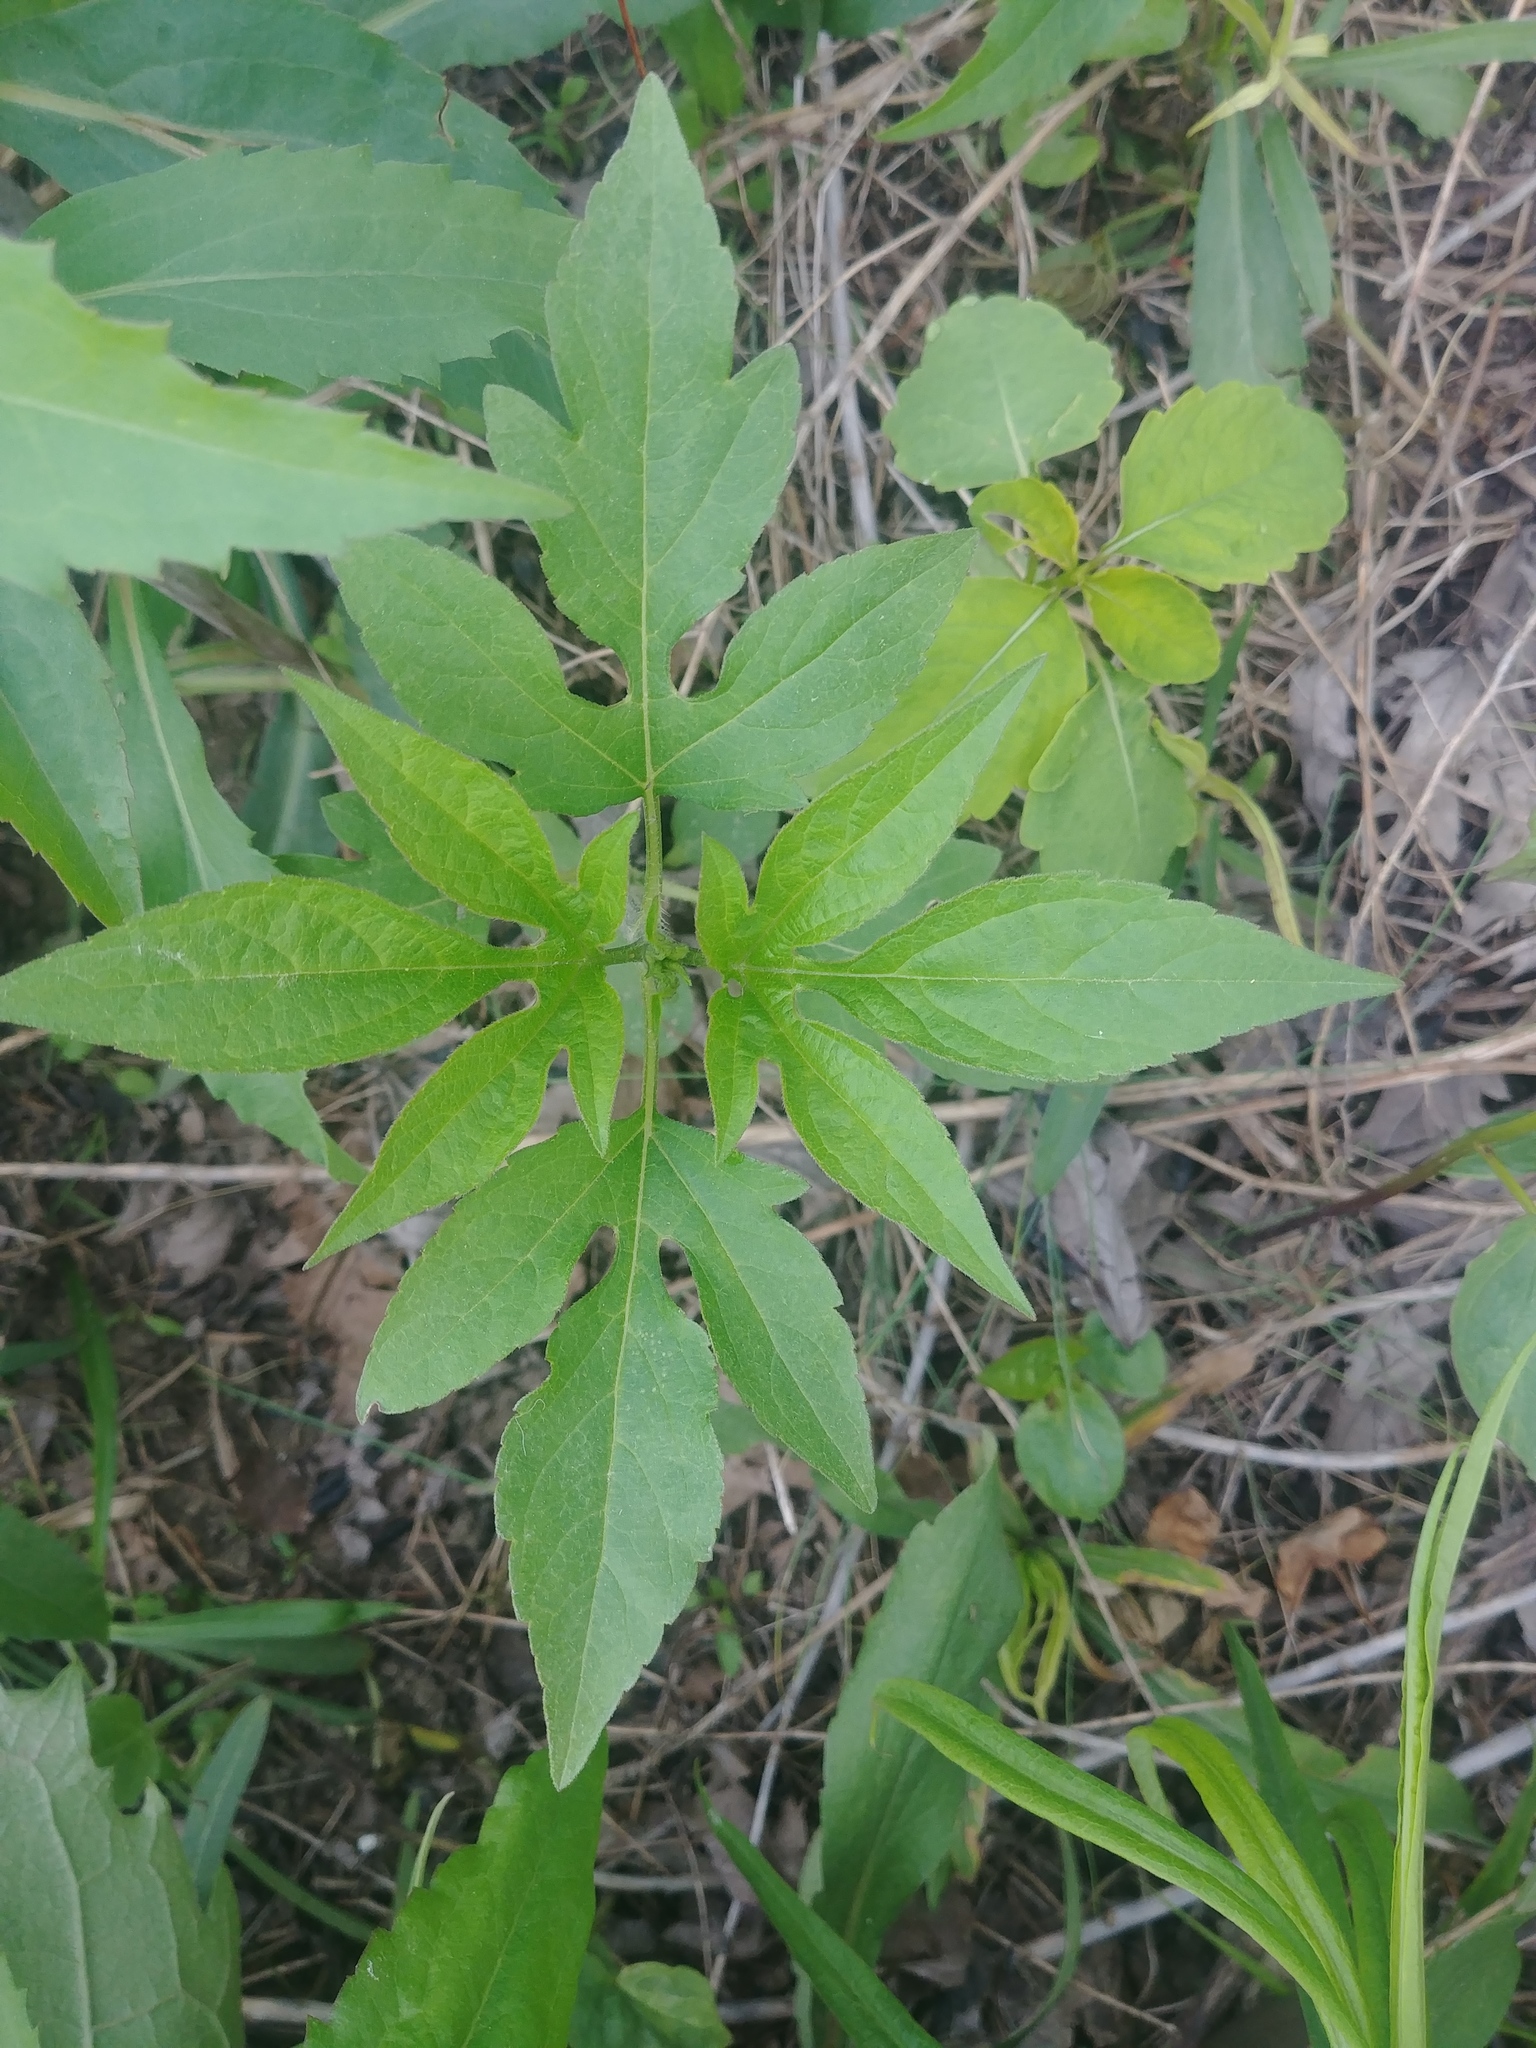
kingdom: Plantae
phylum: Tracheophyta
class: Magnoliopsida
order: Asterales
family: Asteraceae
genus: Ambrosia
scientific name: Ambrosia trifida
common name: Giant ragweed
